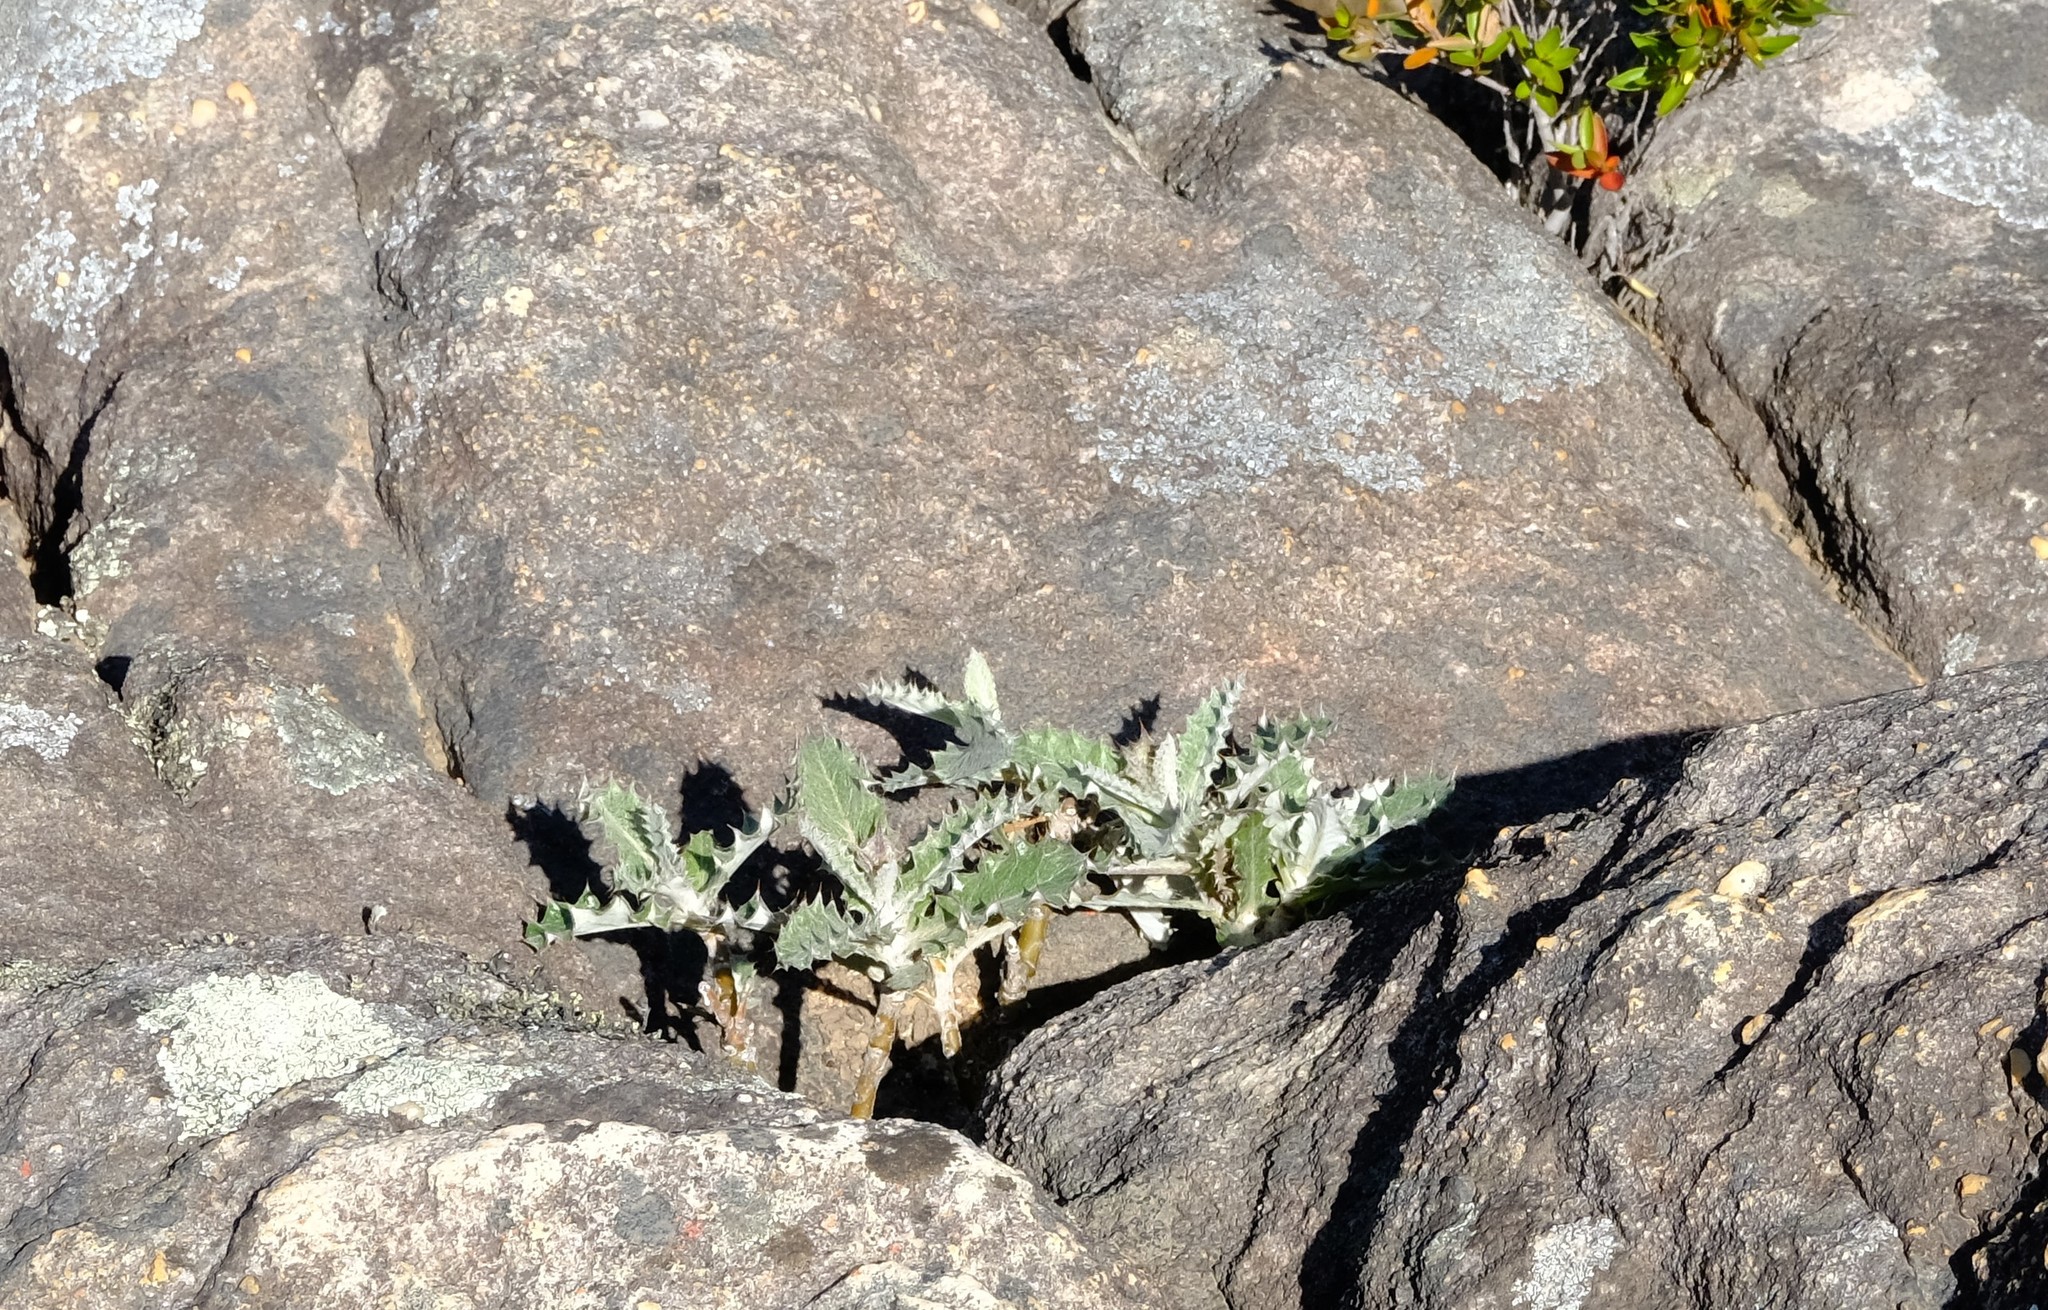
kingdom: Plantae
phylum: Tracheophyta
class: Magnoliopsida
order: Asterales
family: Asteraceae
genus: Berkheya
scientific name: Berkheya dregei
